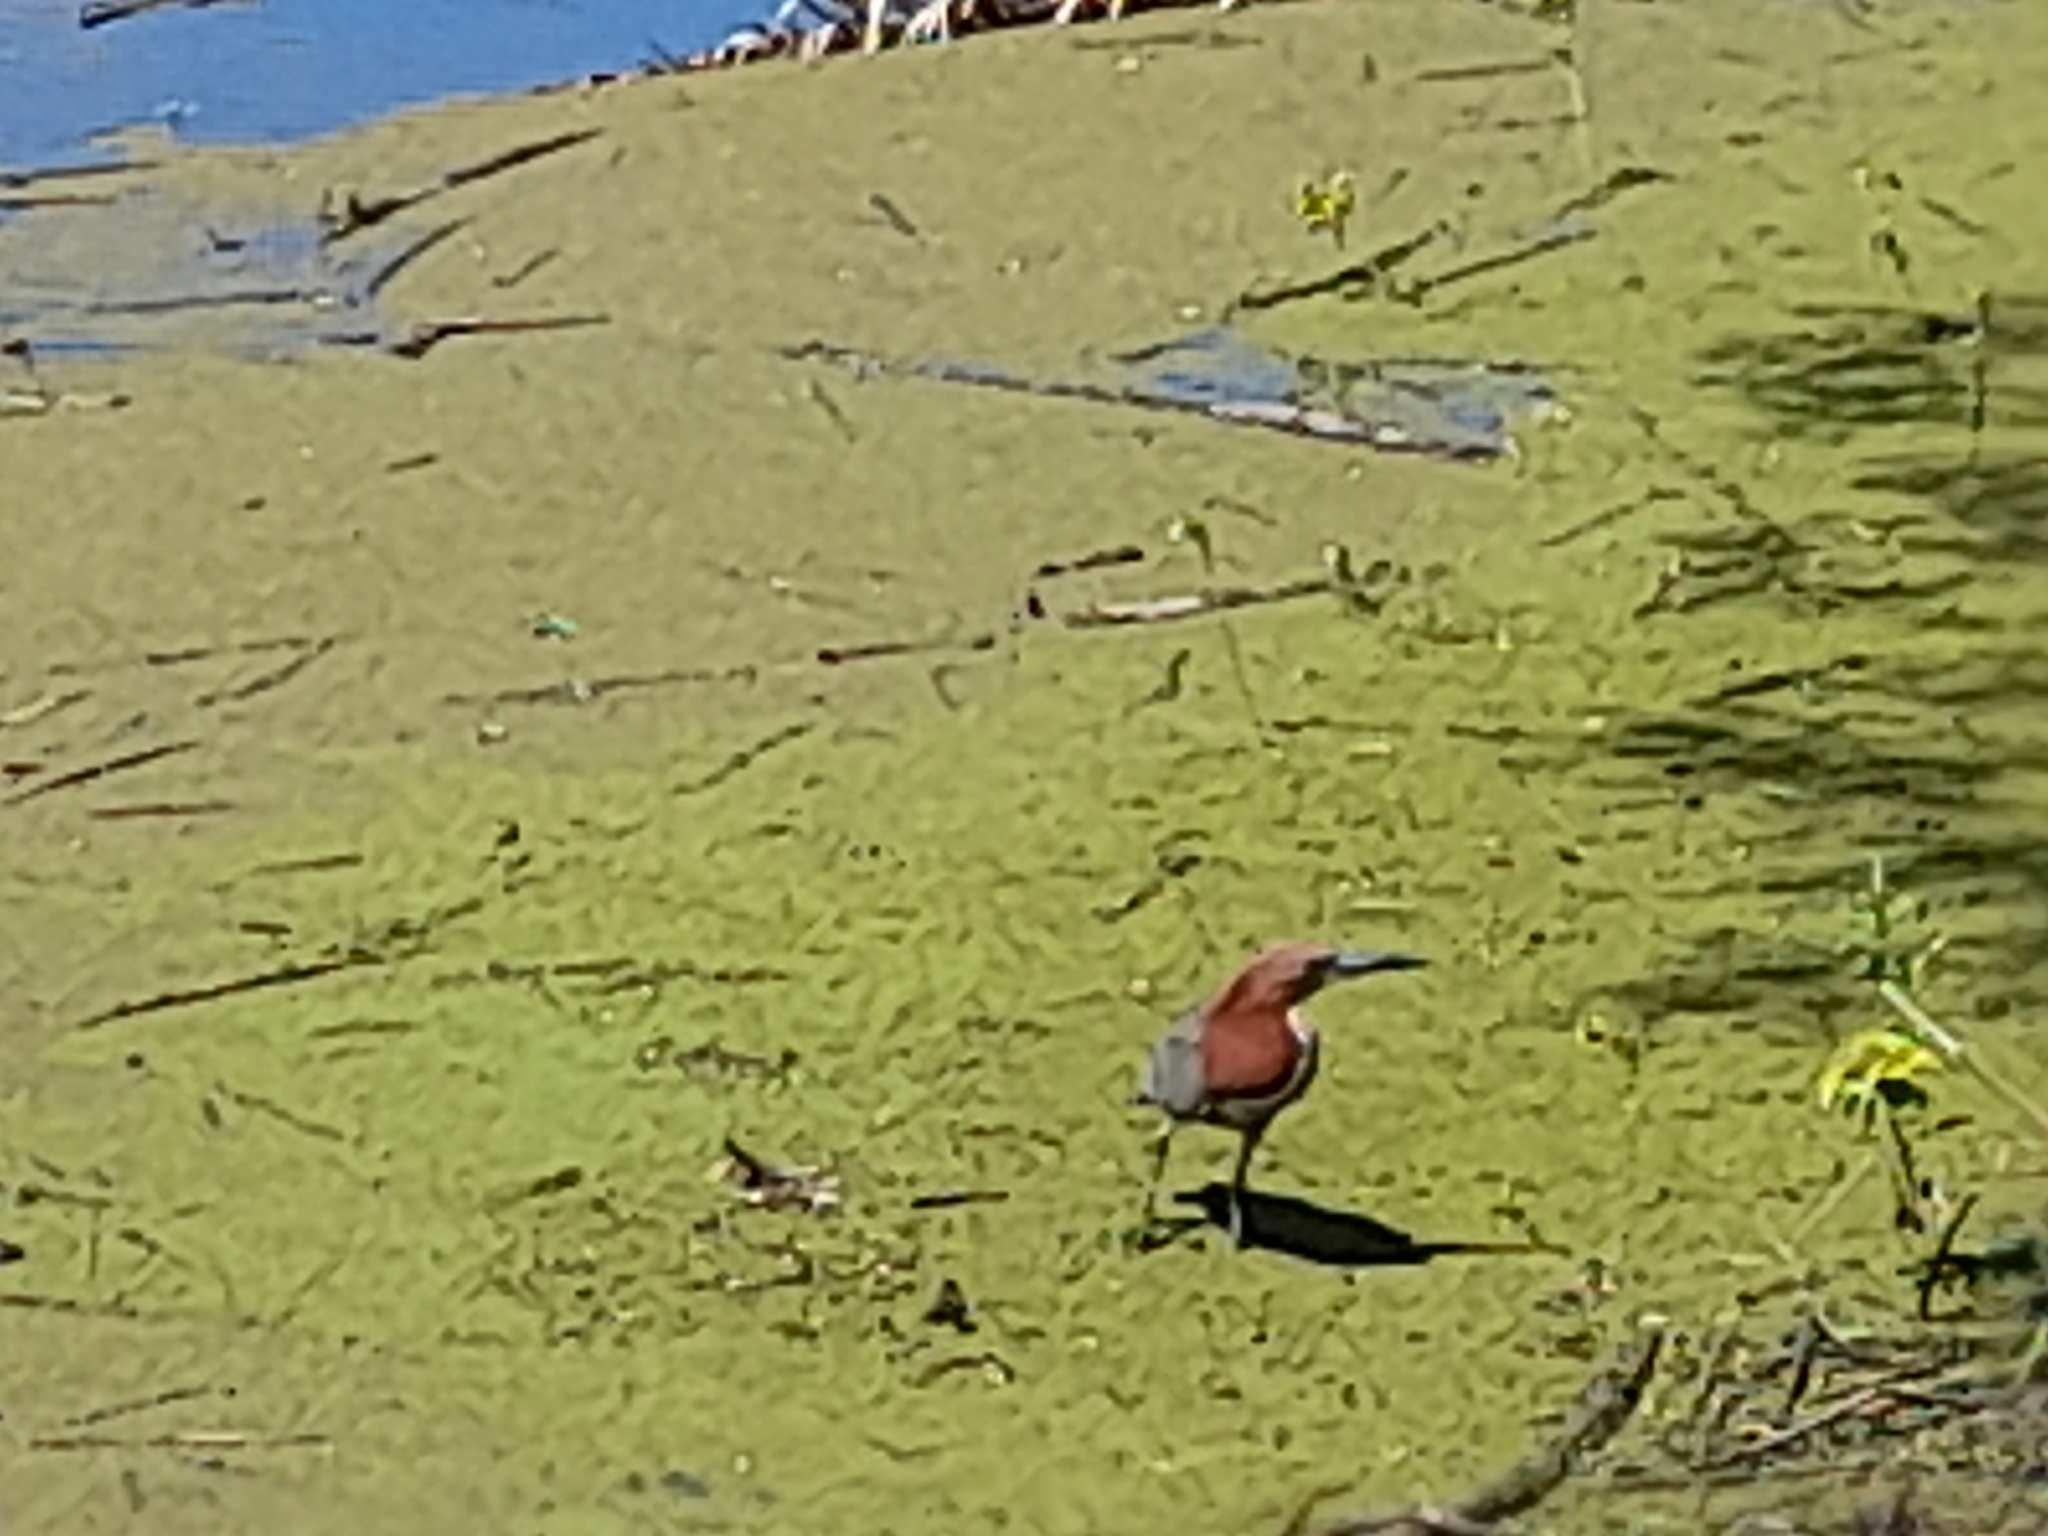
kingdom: Animalia
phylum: Chordata
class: Aves
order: Pelecaniformes
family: Ardeidae
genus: Tigrisoma
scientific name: Tigrisoma lineatum
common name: Rufescent tiger-heron
